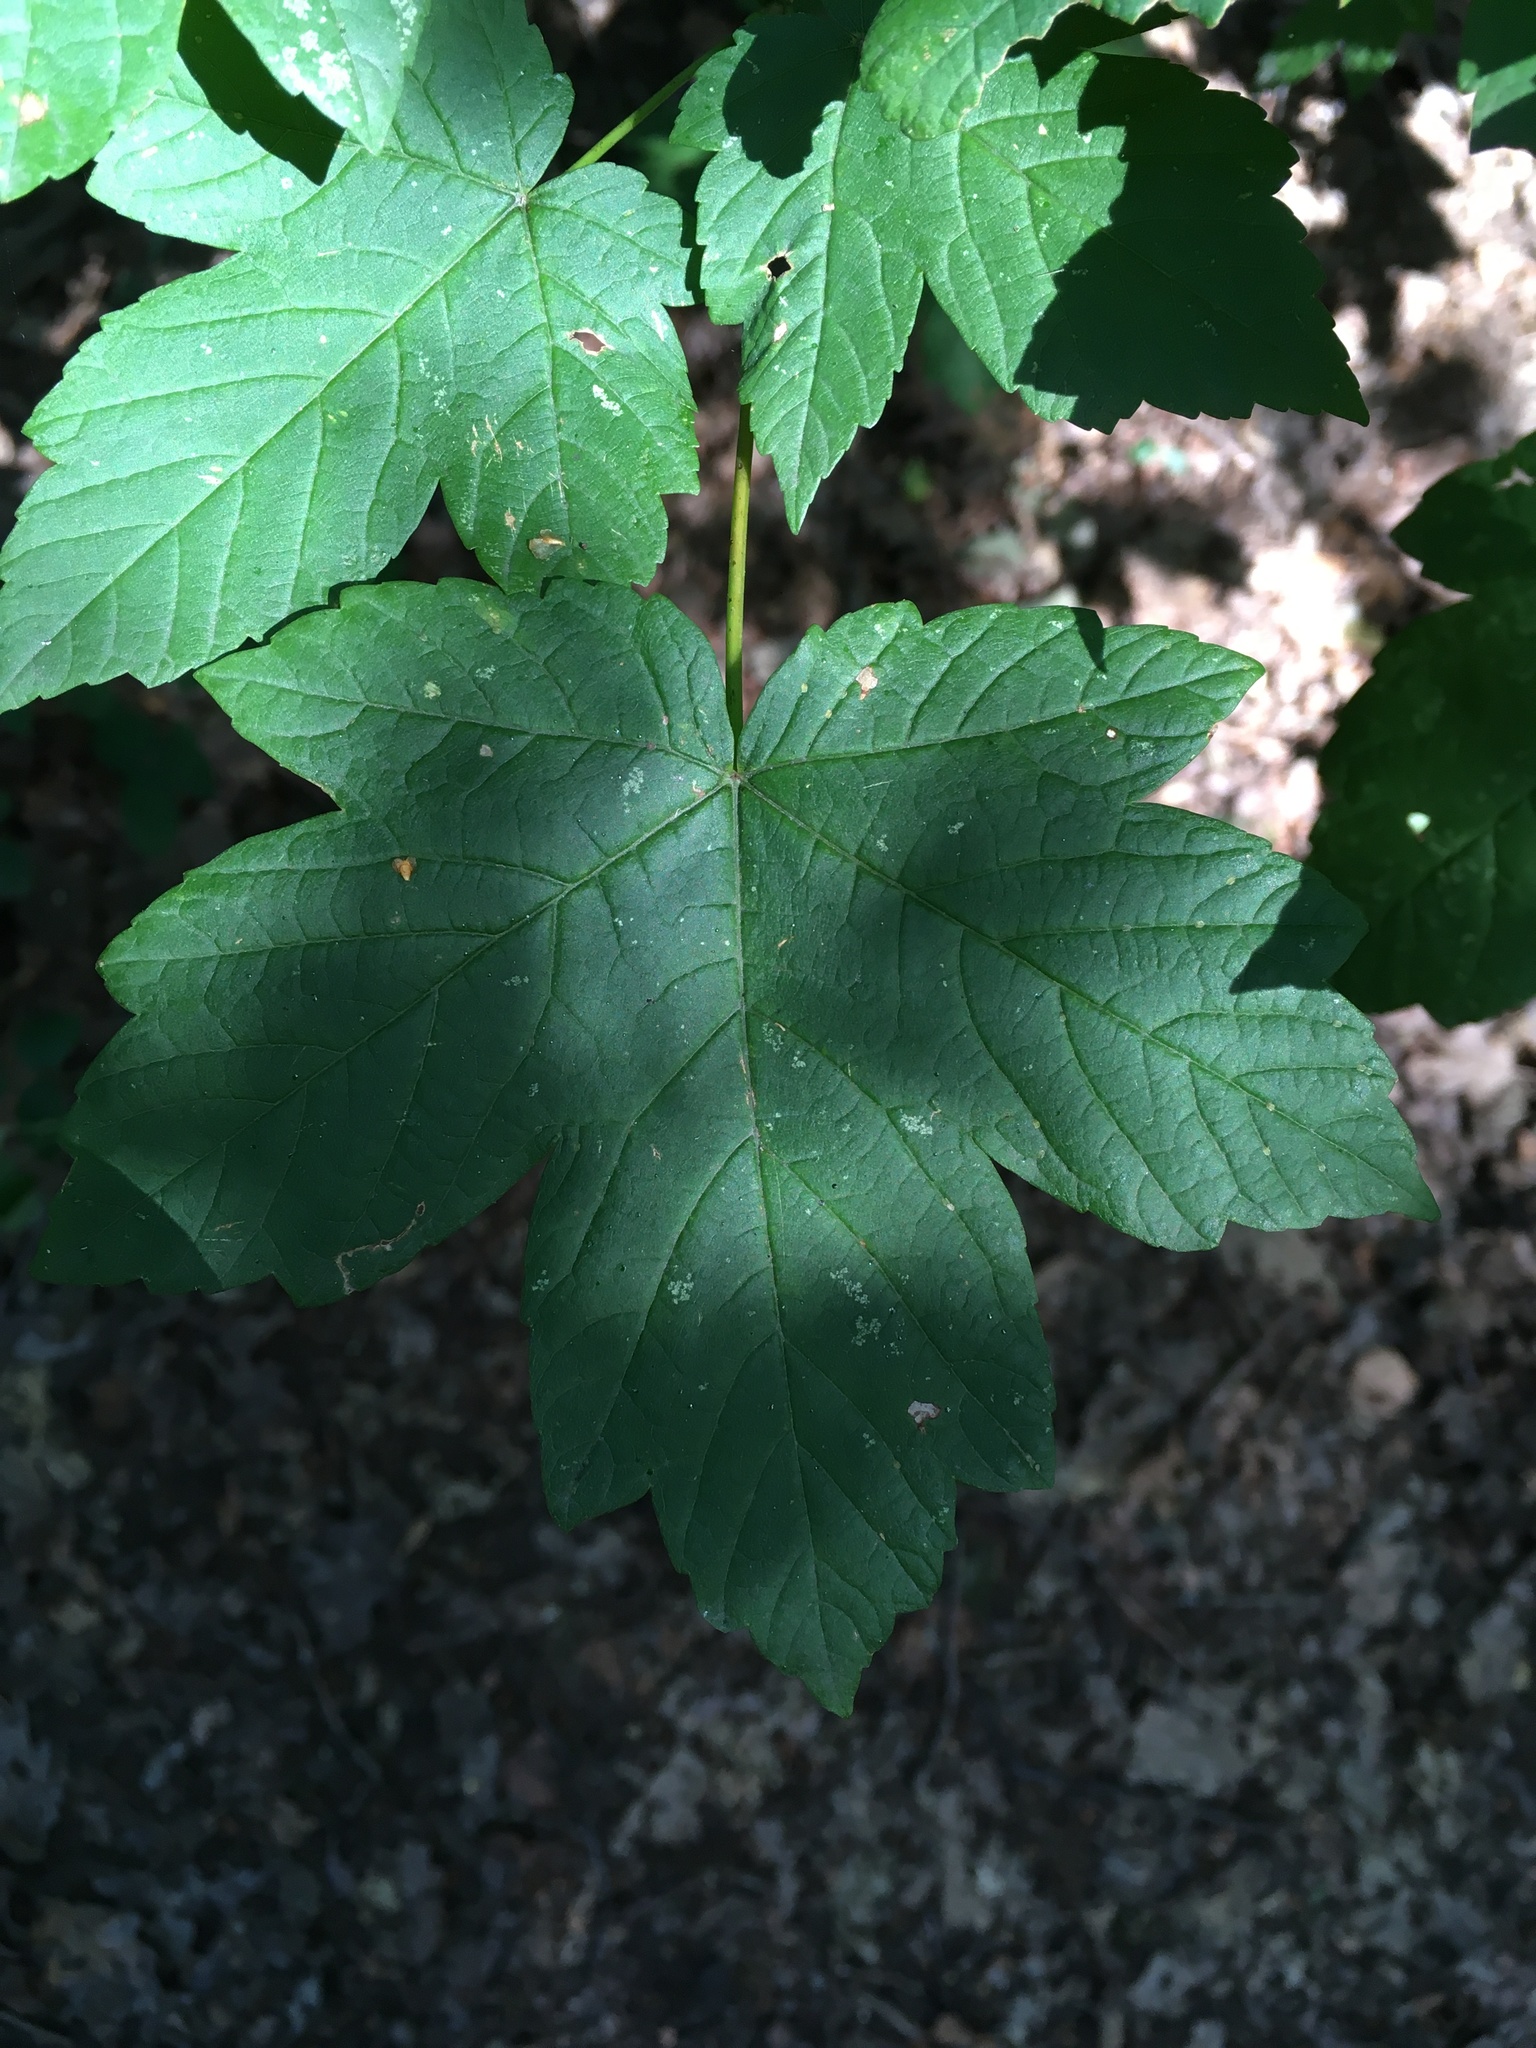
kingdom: Plantae
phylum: Tracheophyta
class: Magnoliopsida
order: Sapindales
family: Sapindaceae
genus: Acer
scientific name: Acer pseudoplatanus
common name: Sycamore
